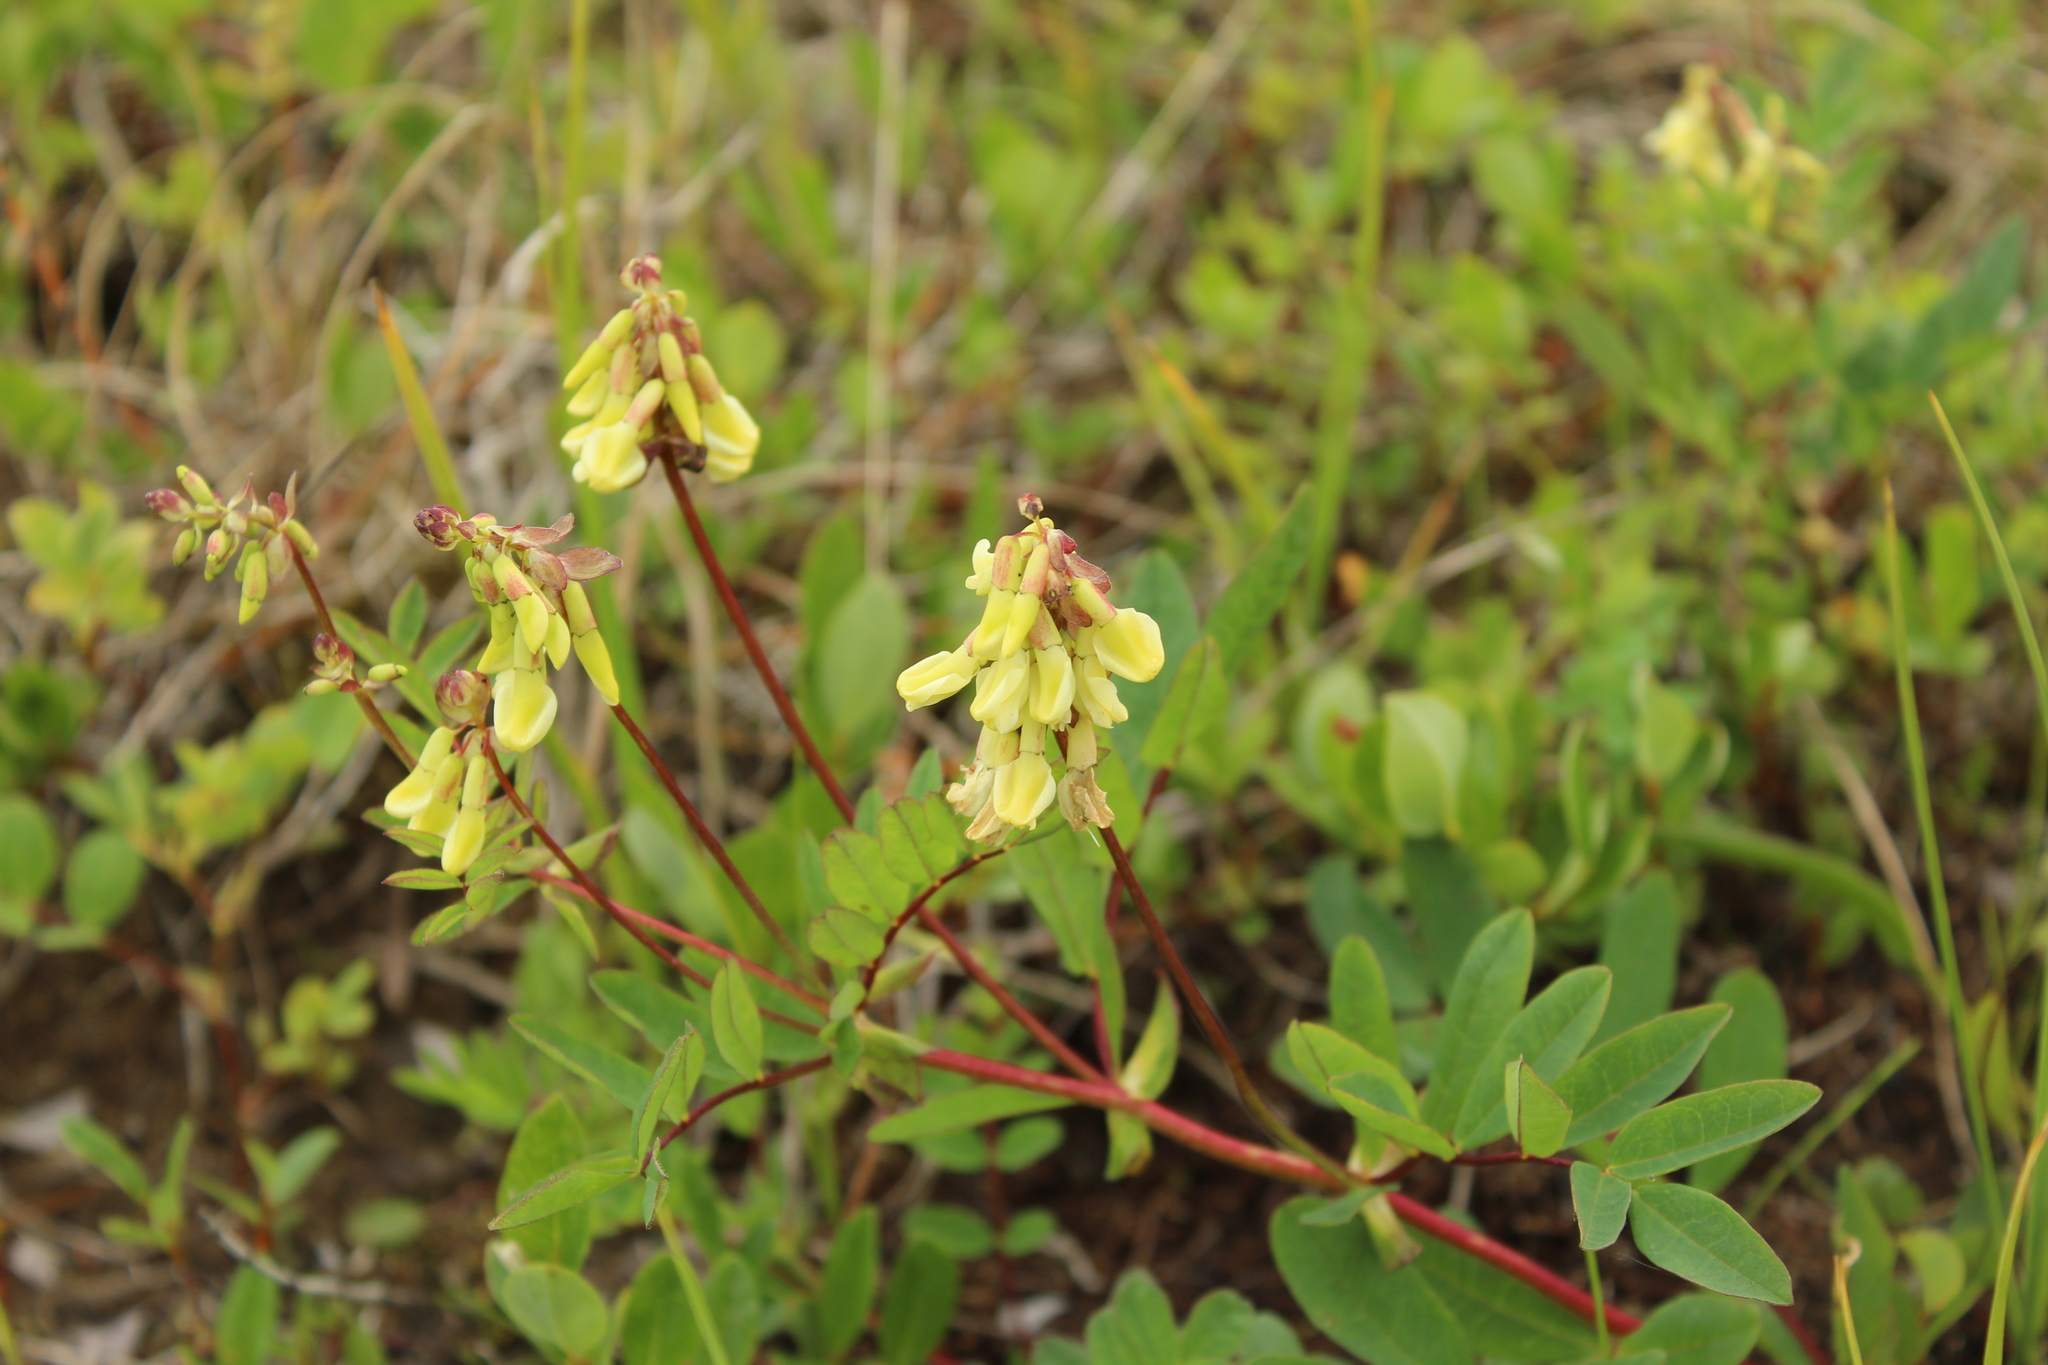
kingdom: Plantae
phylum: Tracheophyta
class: Magnoliopsida
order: Fabales
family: Fabaceae
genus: Astragalus
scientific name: Astragalus frigidus
